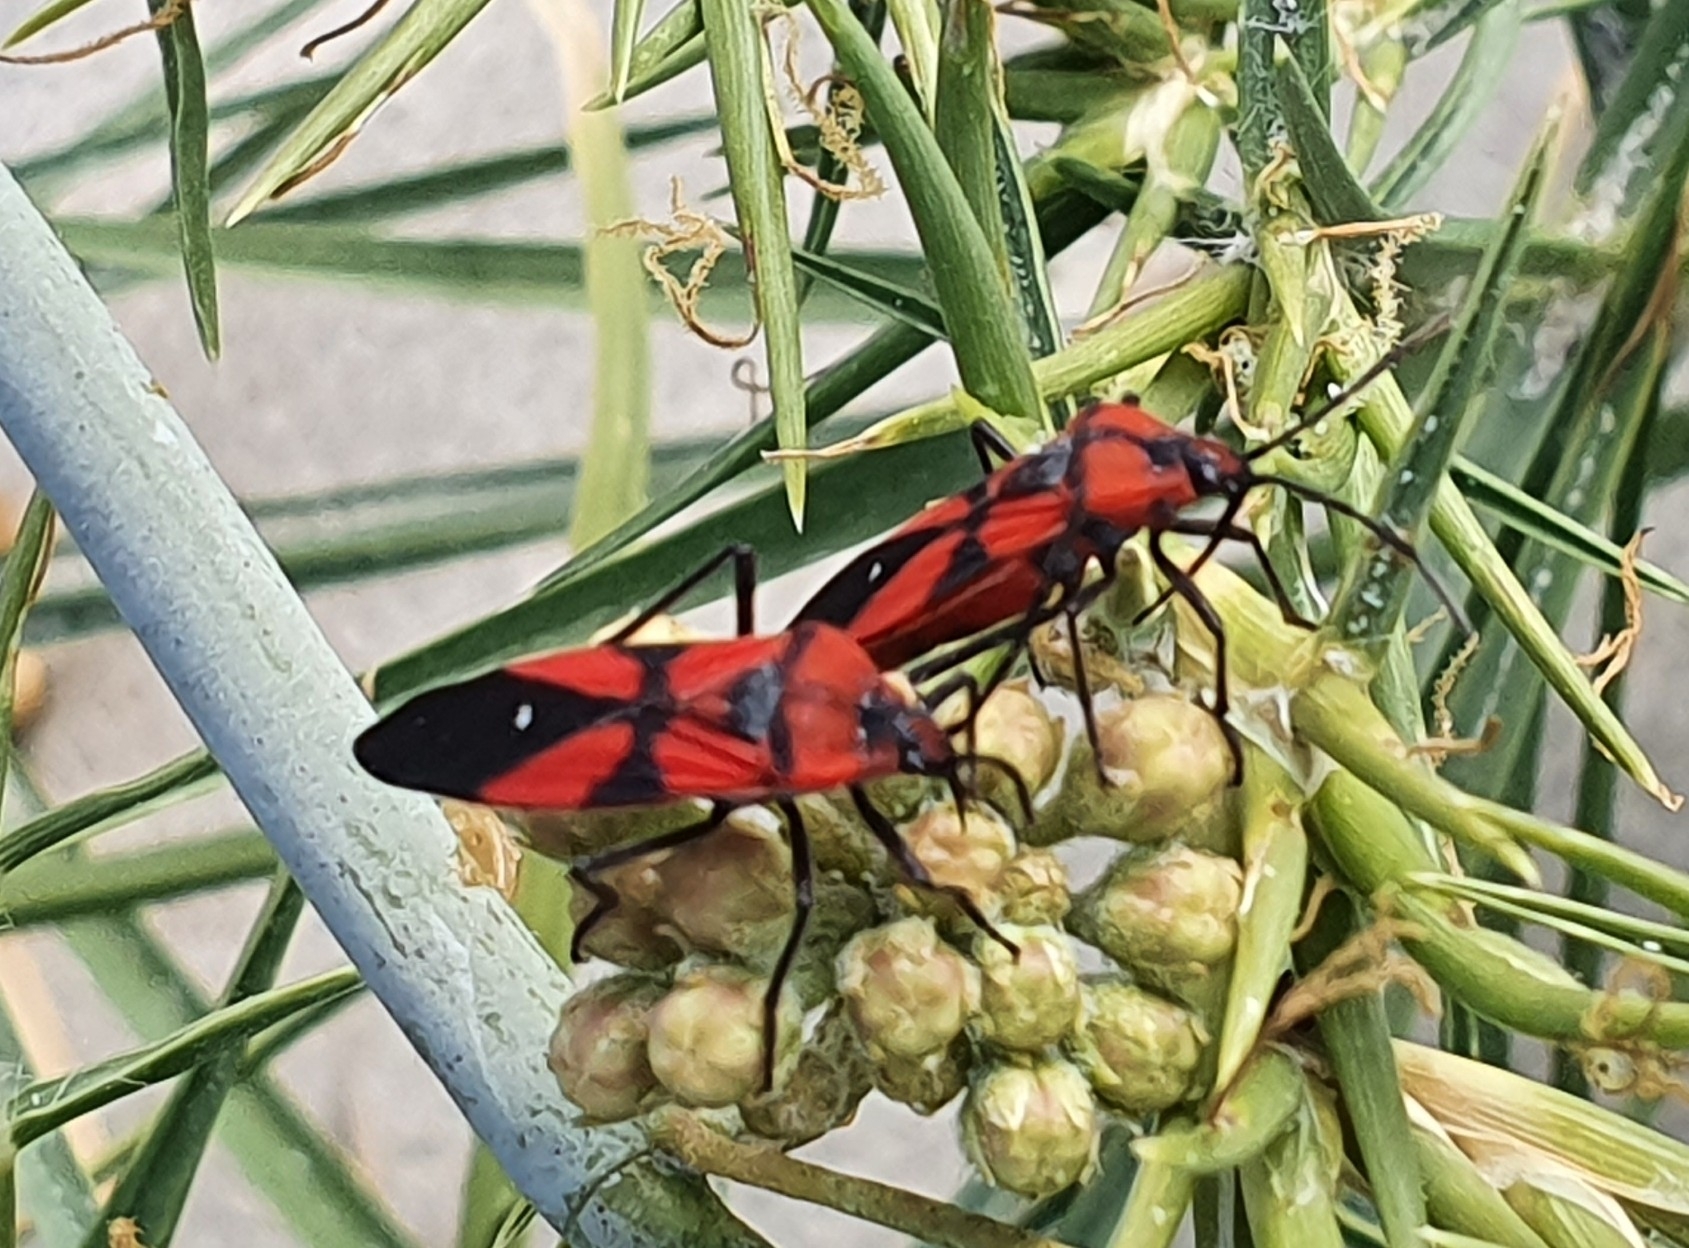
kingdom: Animalia
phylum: Arthropoda
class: Insecta
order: Hemiptera
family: Lygaeidae
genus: Oncopeltus
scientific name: Oncopeltus sanguinolentus
